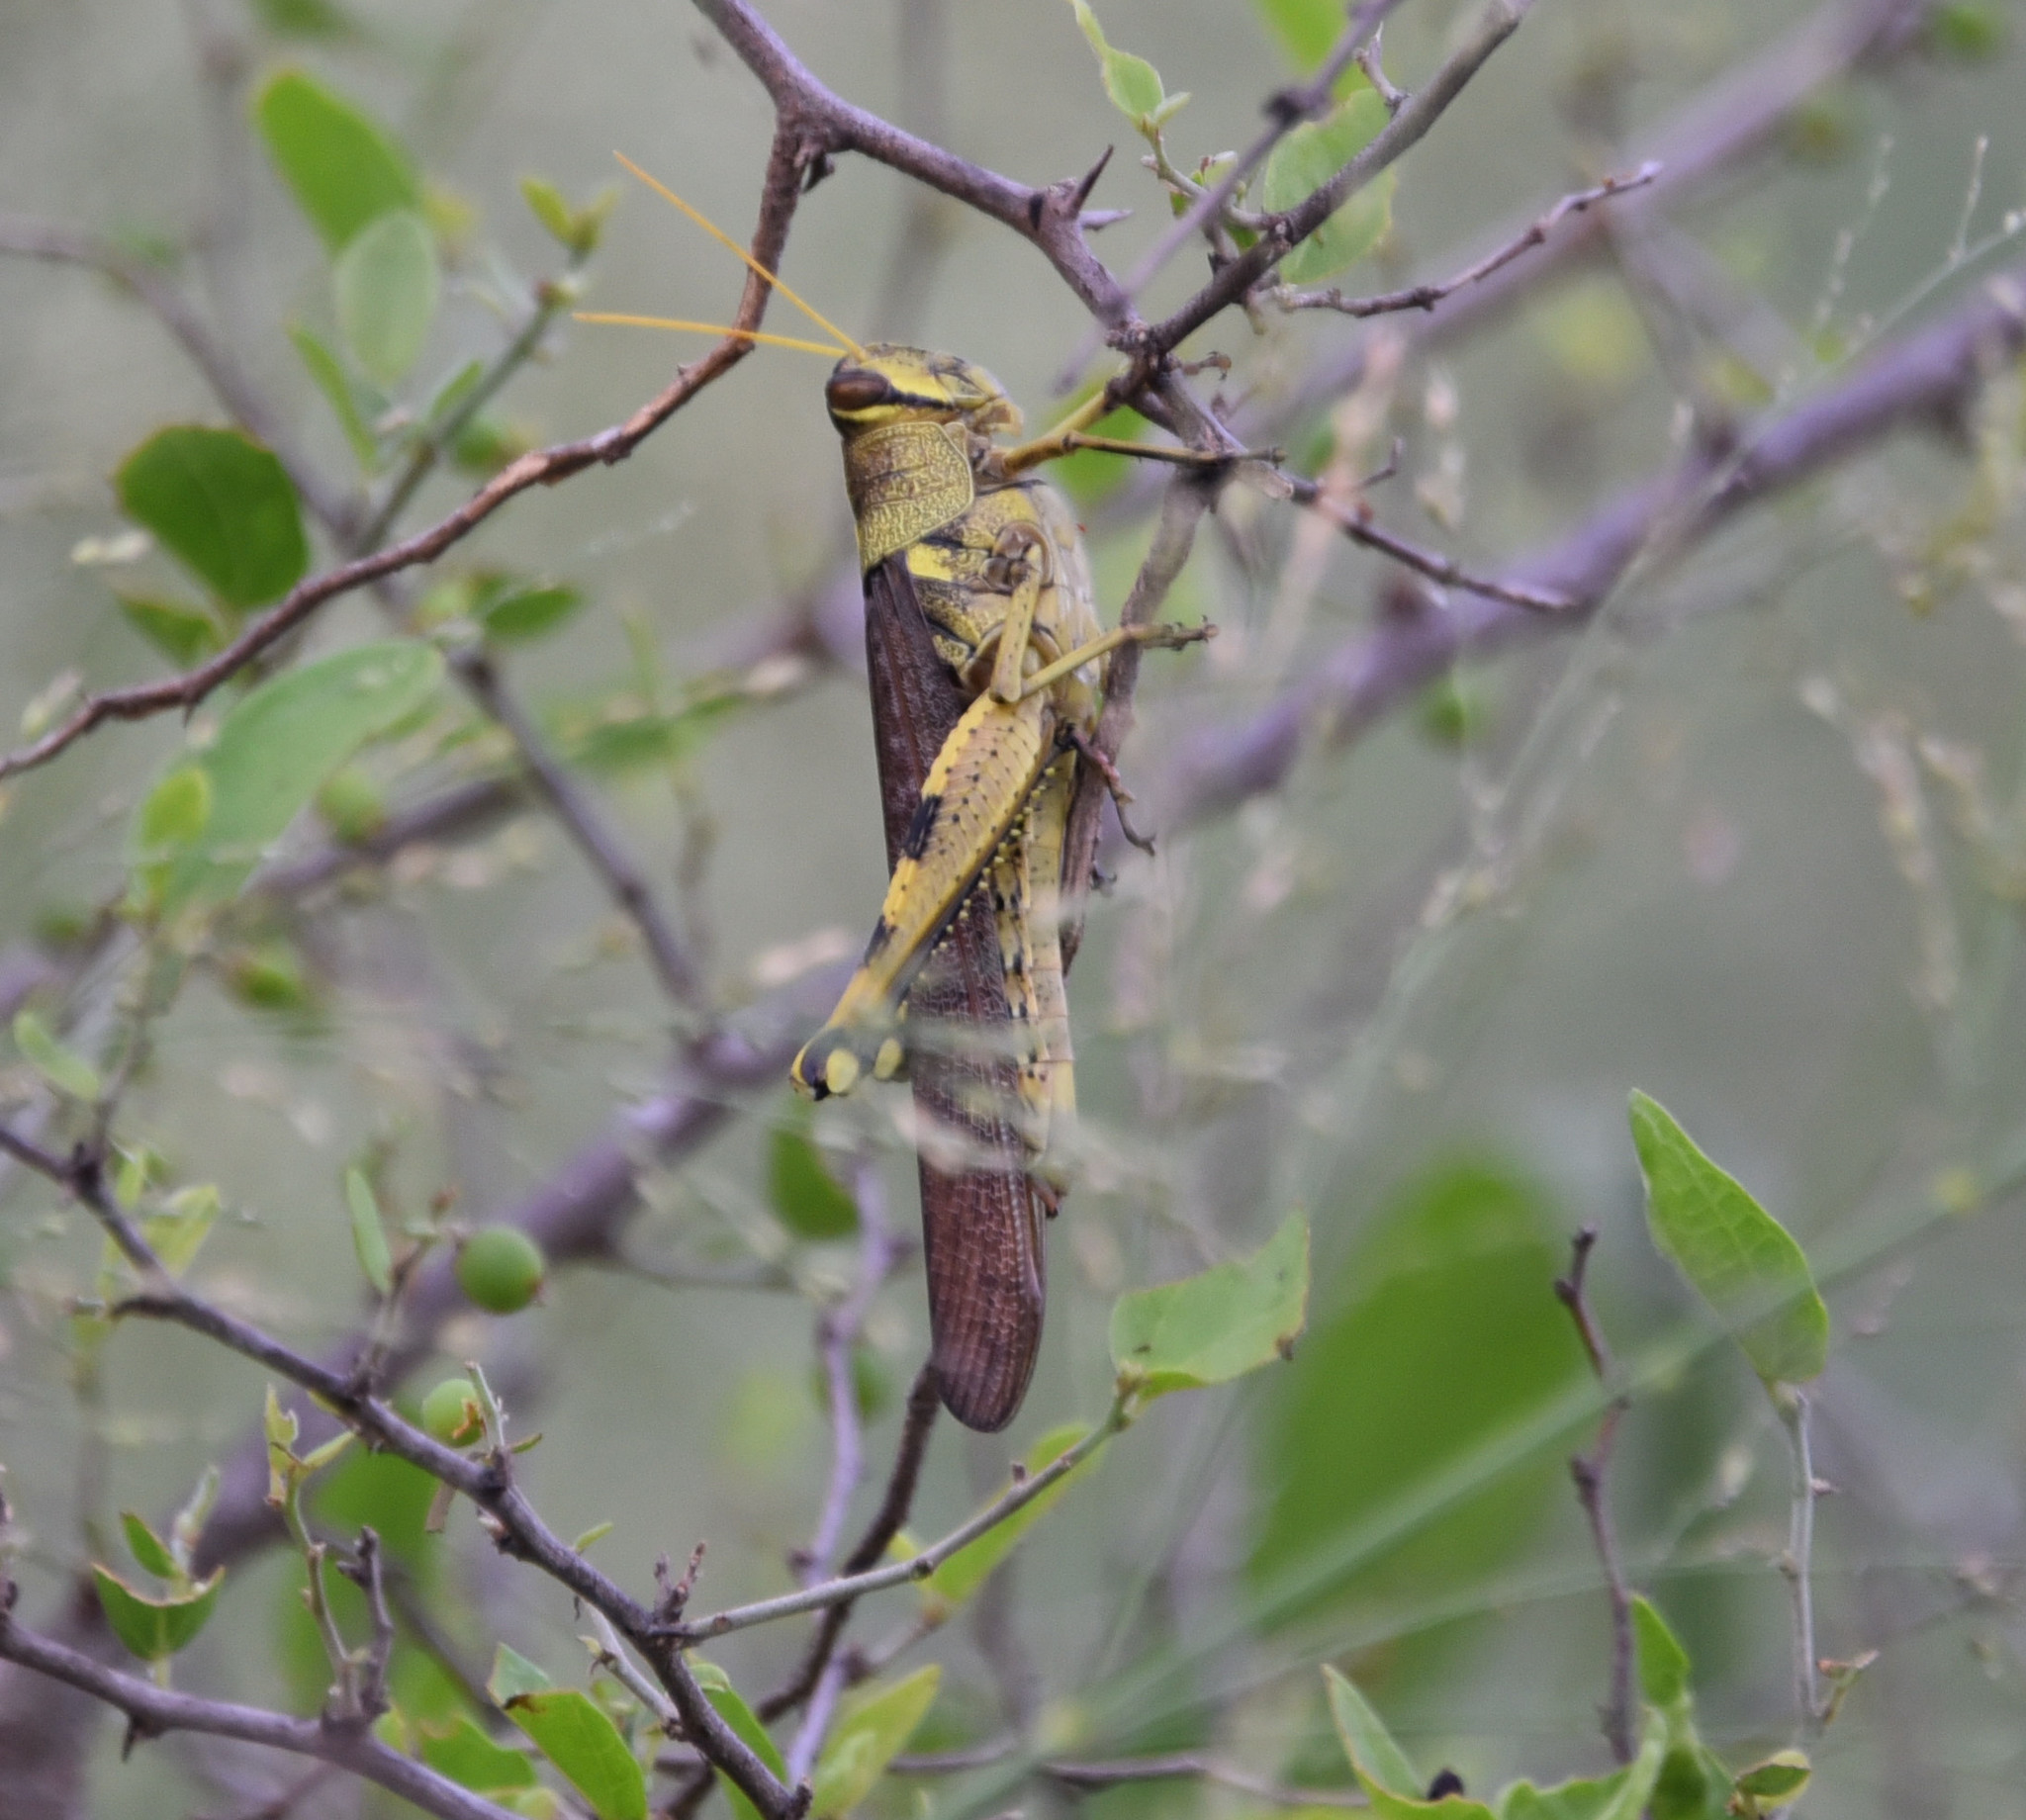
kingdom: Animalia
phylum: Arthropoda
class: Insecta
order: Orthoptera
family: Acrididae
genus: Schistocerca
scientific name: Schistocerca obscura
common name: Obscure bird grasshopper
